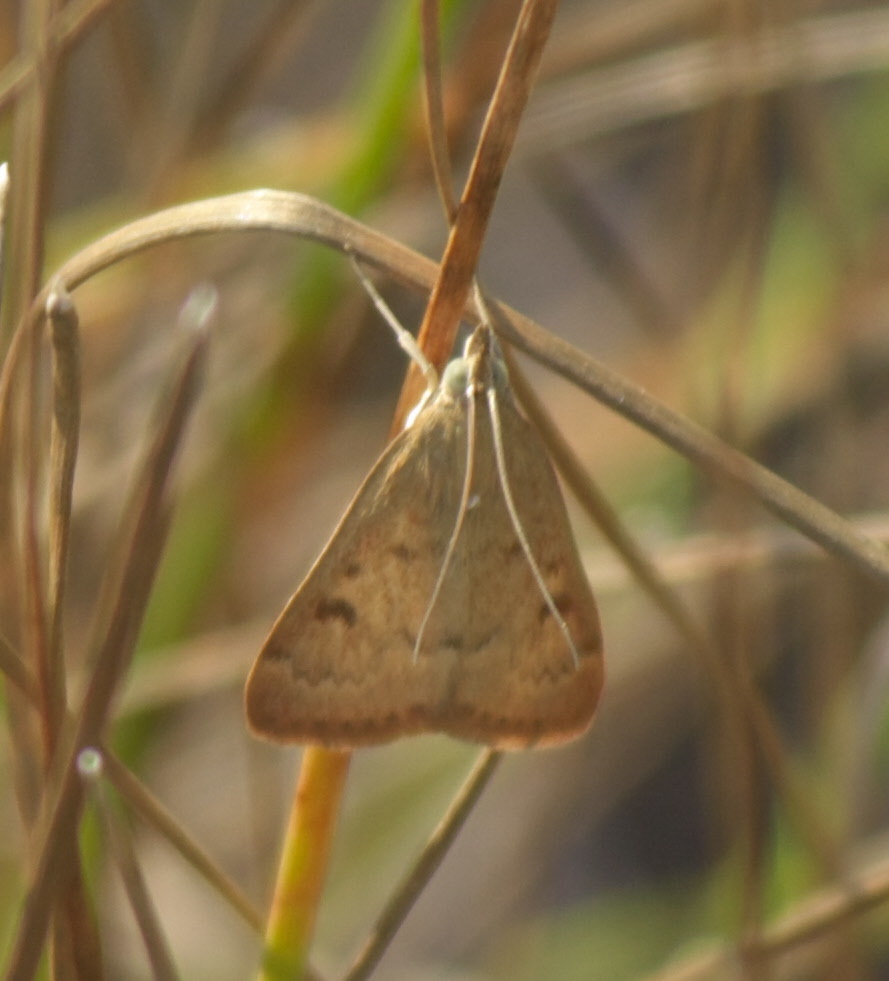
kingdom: Animalia
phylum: Arthropoda
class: Insecta
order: Lepidoptera
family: Crambidae
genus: Achyra
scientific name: Achyra rantalis
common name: Garden webworm
